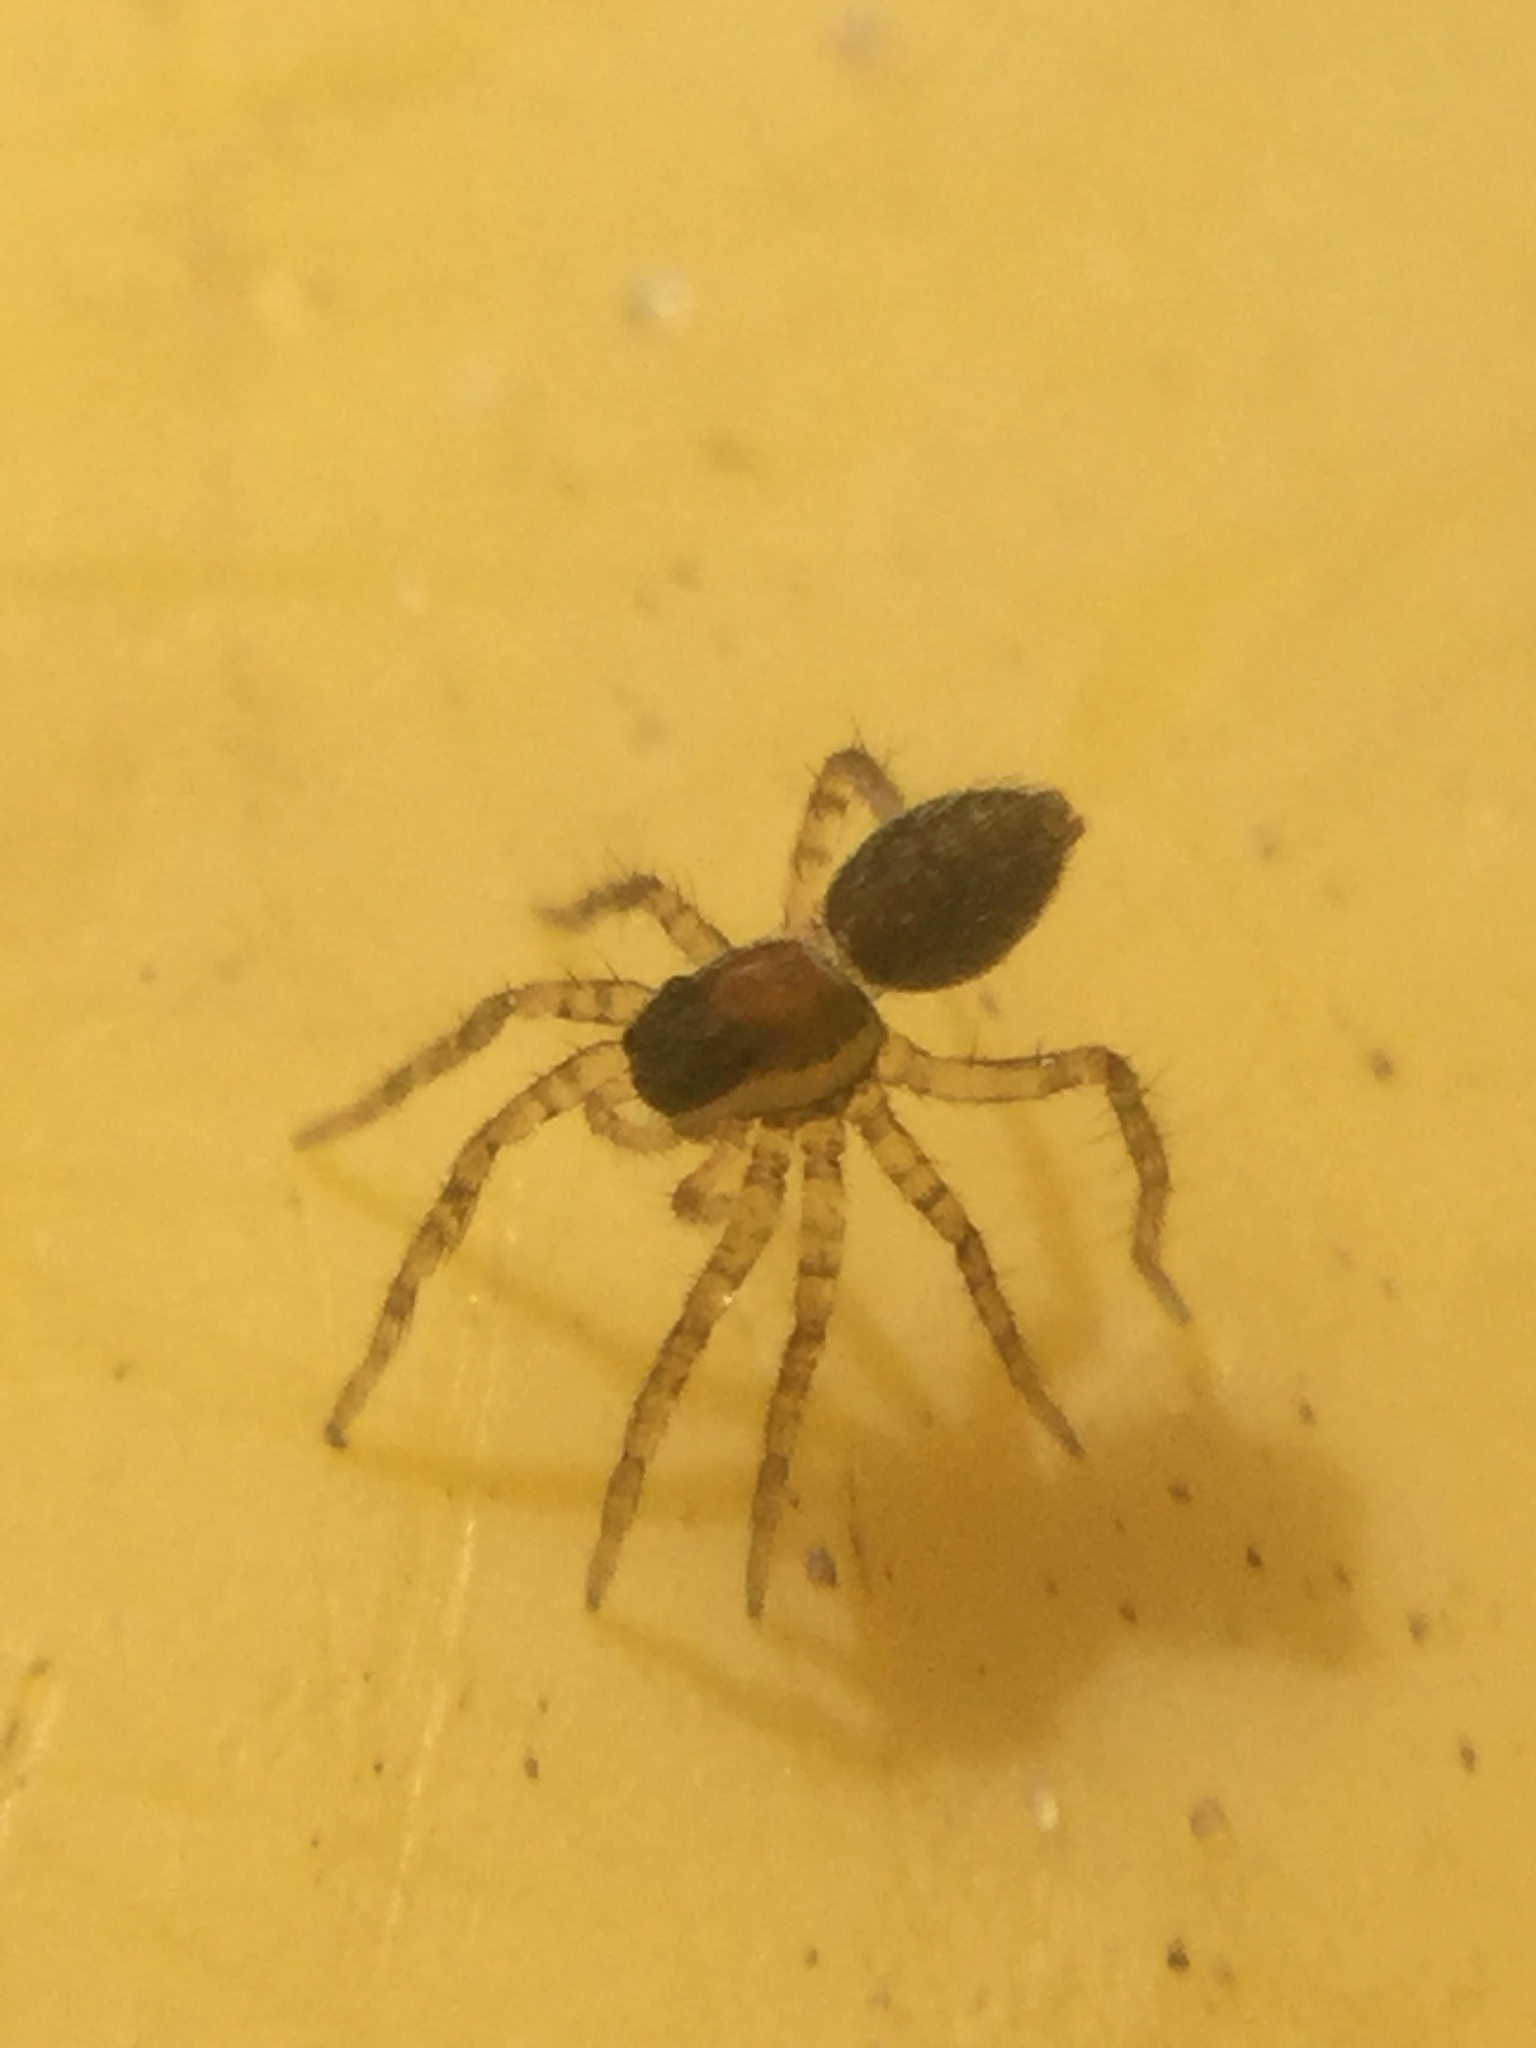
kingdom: Animalia
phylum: Arthropoda
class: Arachnida
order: Araneae
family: Lycosidae
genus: Pardosa
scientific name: Pardosa
